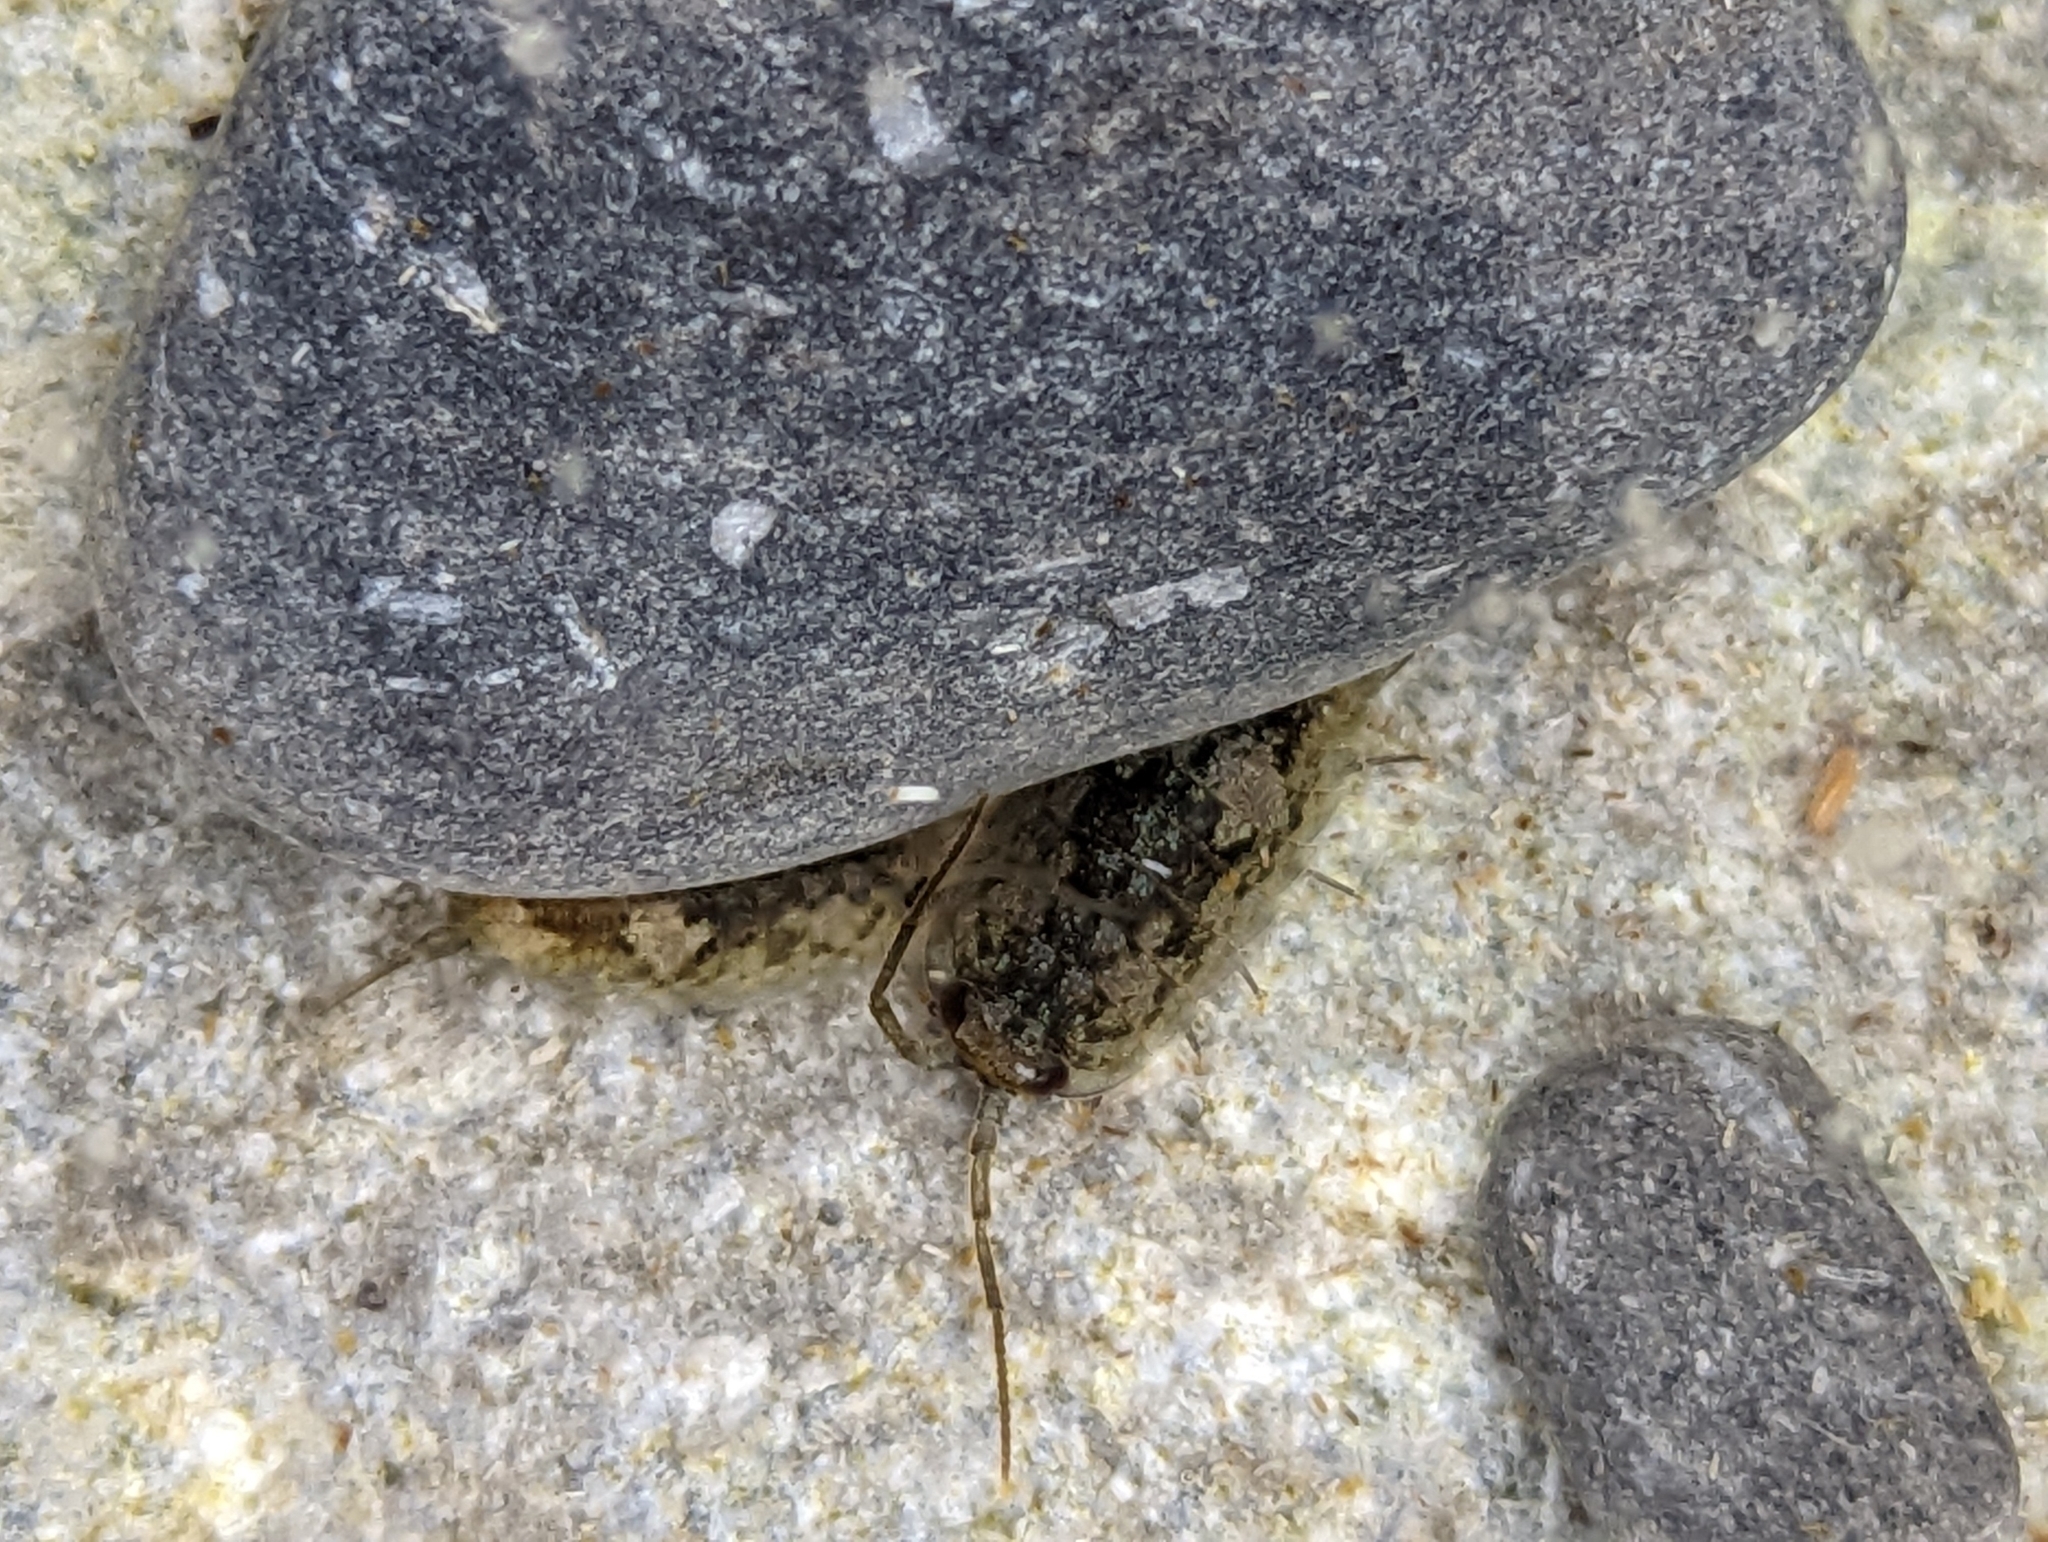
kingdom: Animalia
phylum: Arthropoda
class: Malacostraca
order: Isopoda
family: Ligiidae
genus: Ligia
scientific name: Ligia oceanica
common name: Sea slater
